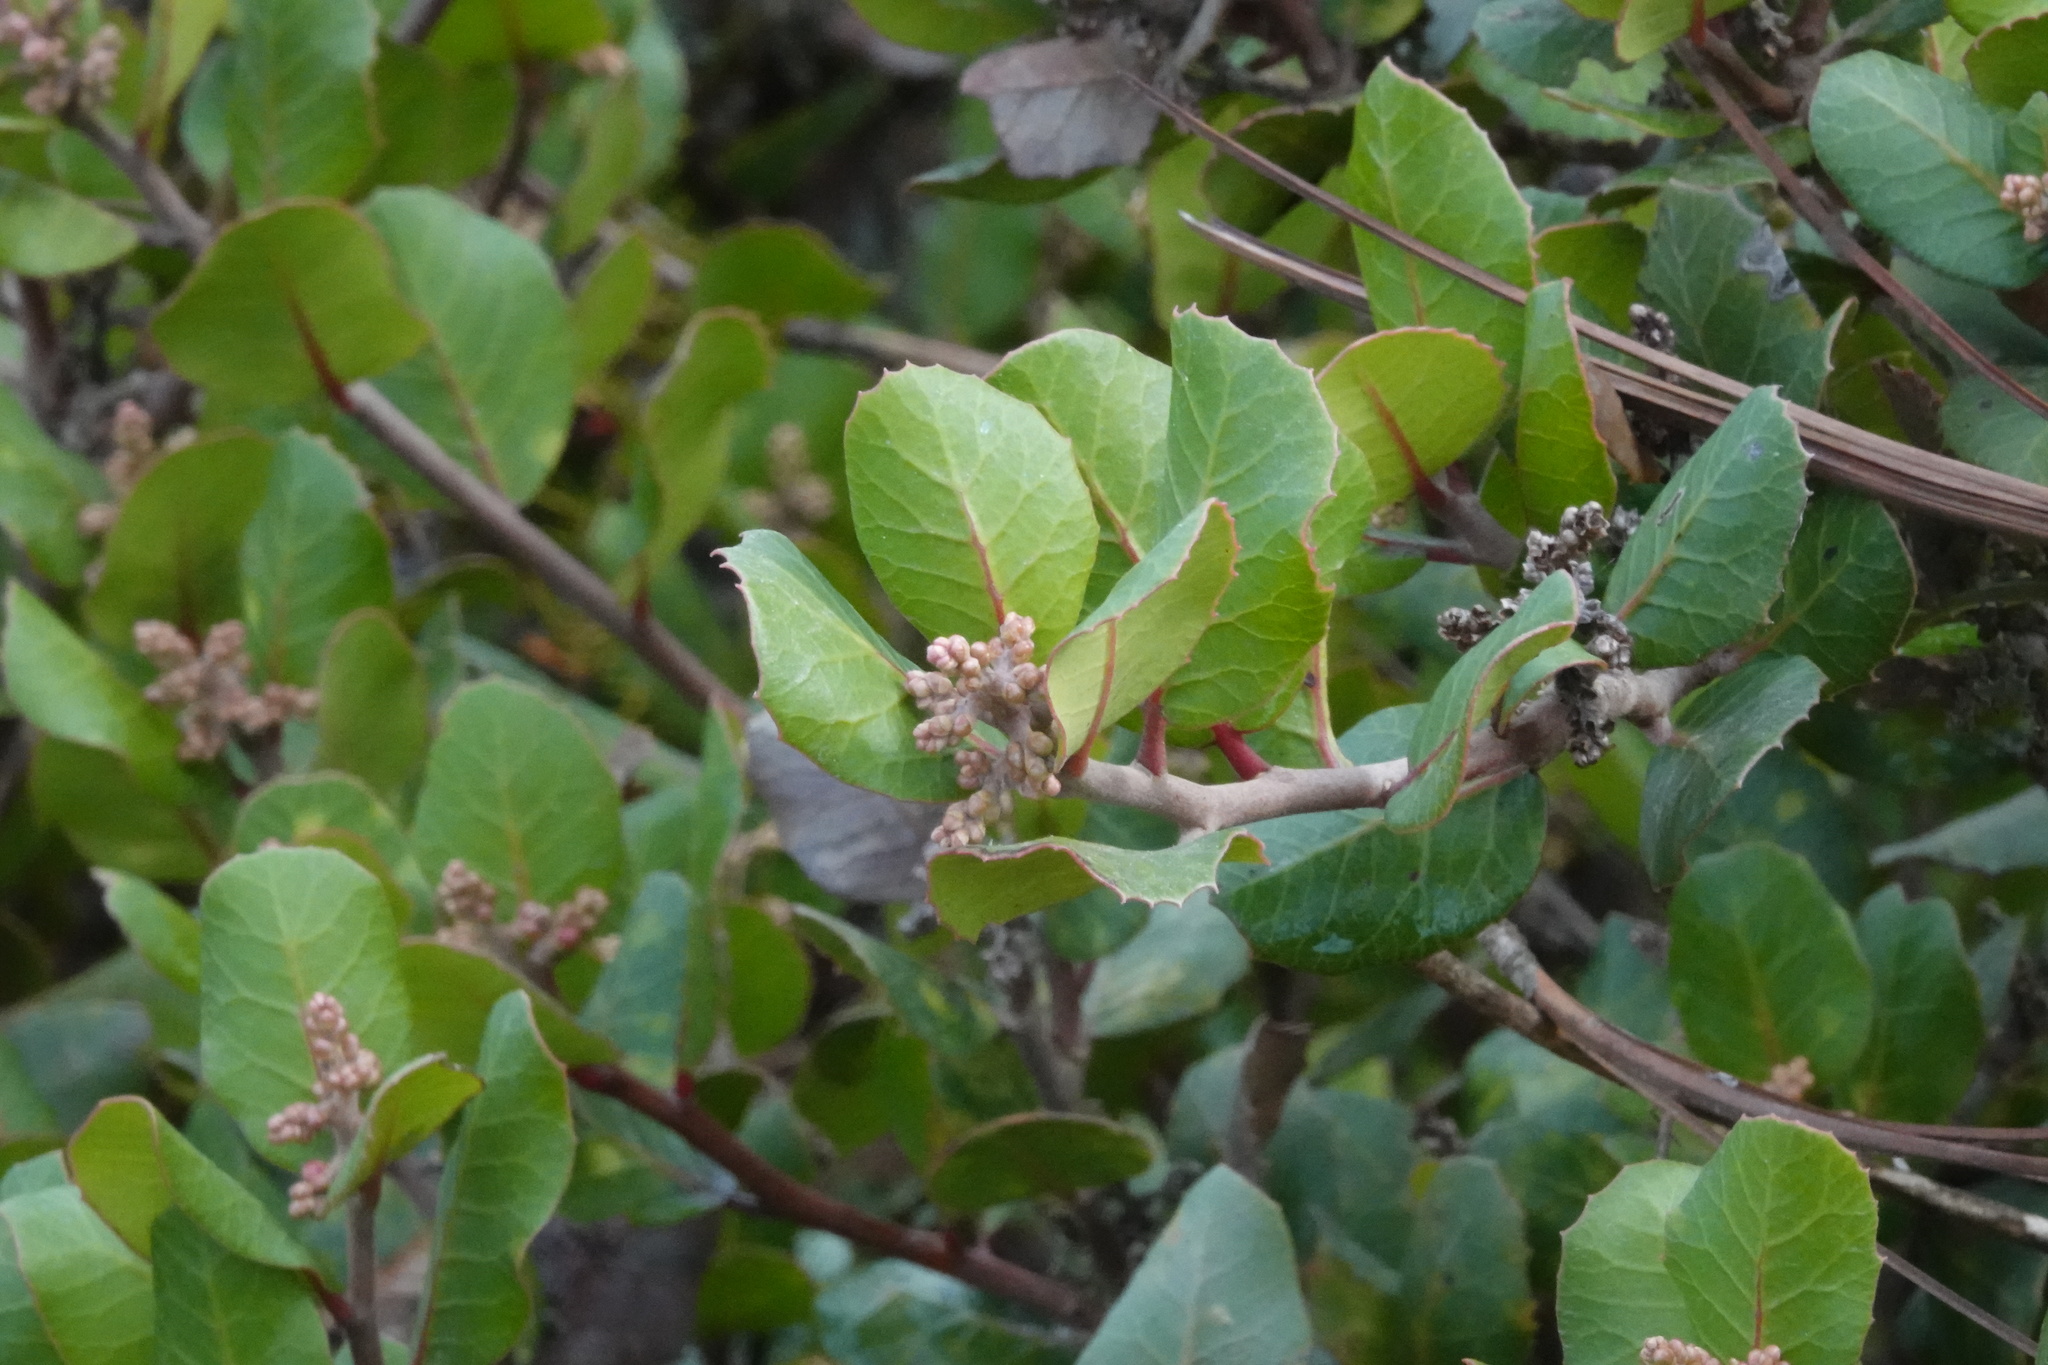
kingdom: Plantae
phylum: Tracheophyta
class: Magnoliopsida
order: Sapindales
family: Anacardiaceae
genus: Rhus
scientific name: Rhus integrifolia
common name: Lemonade sumac
